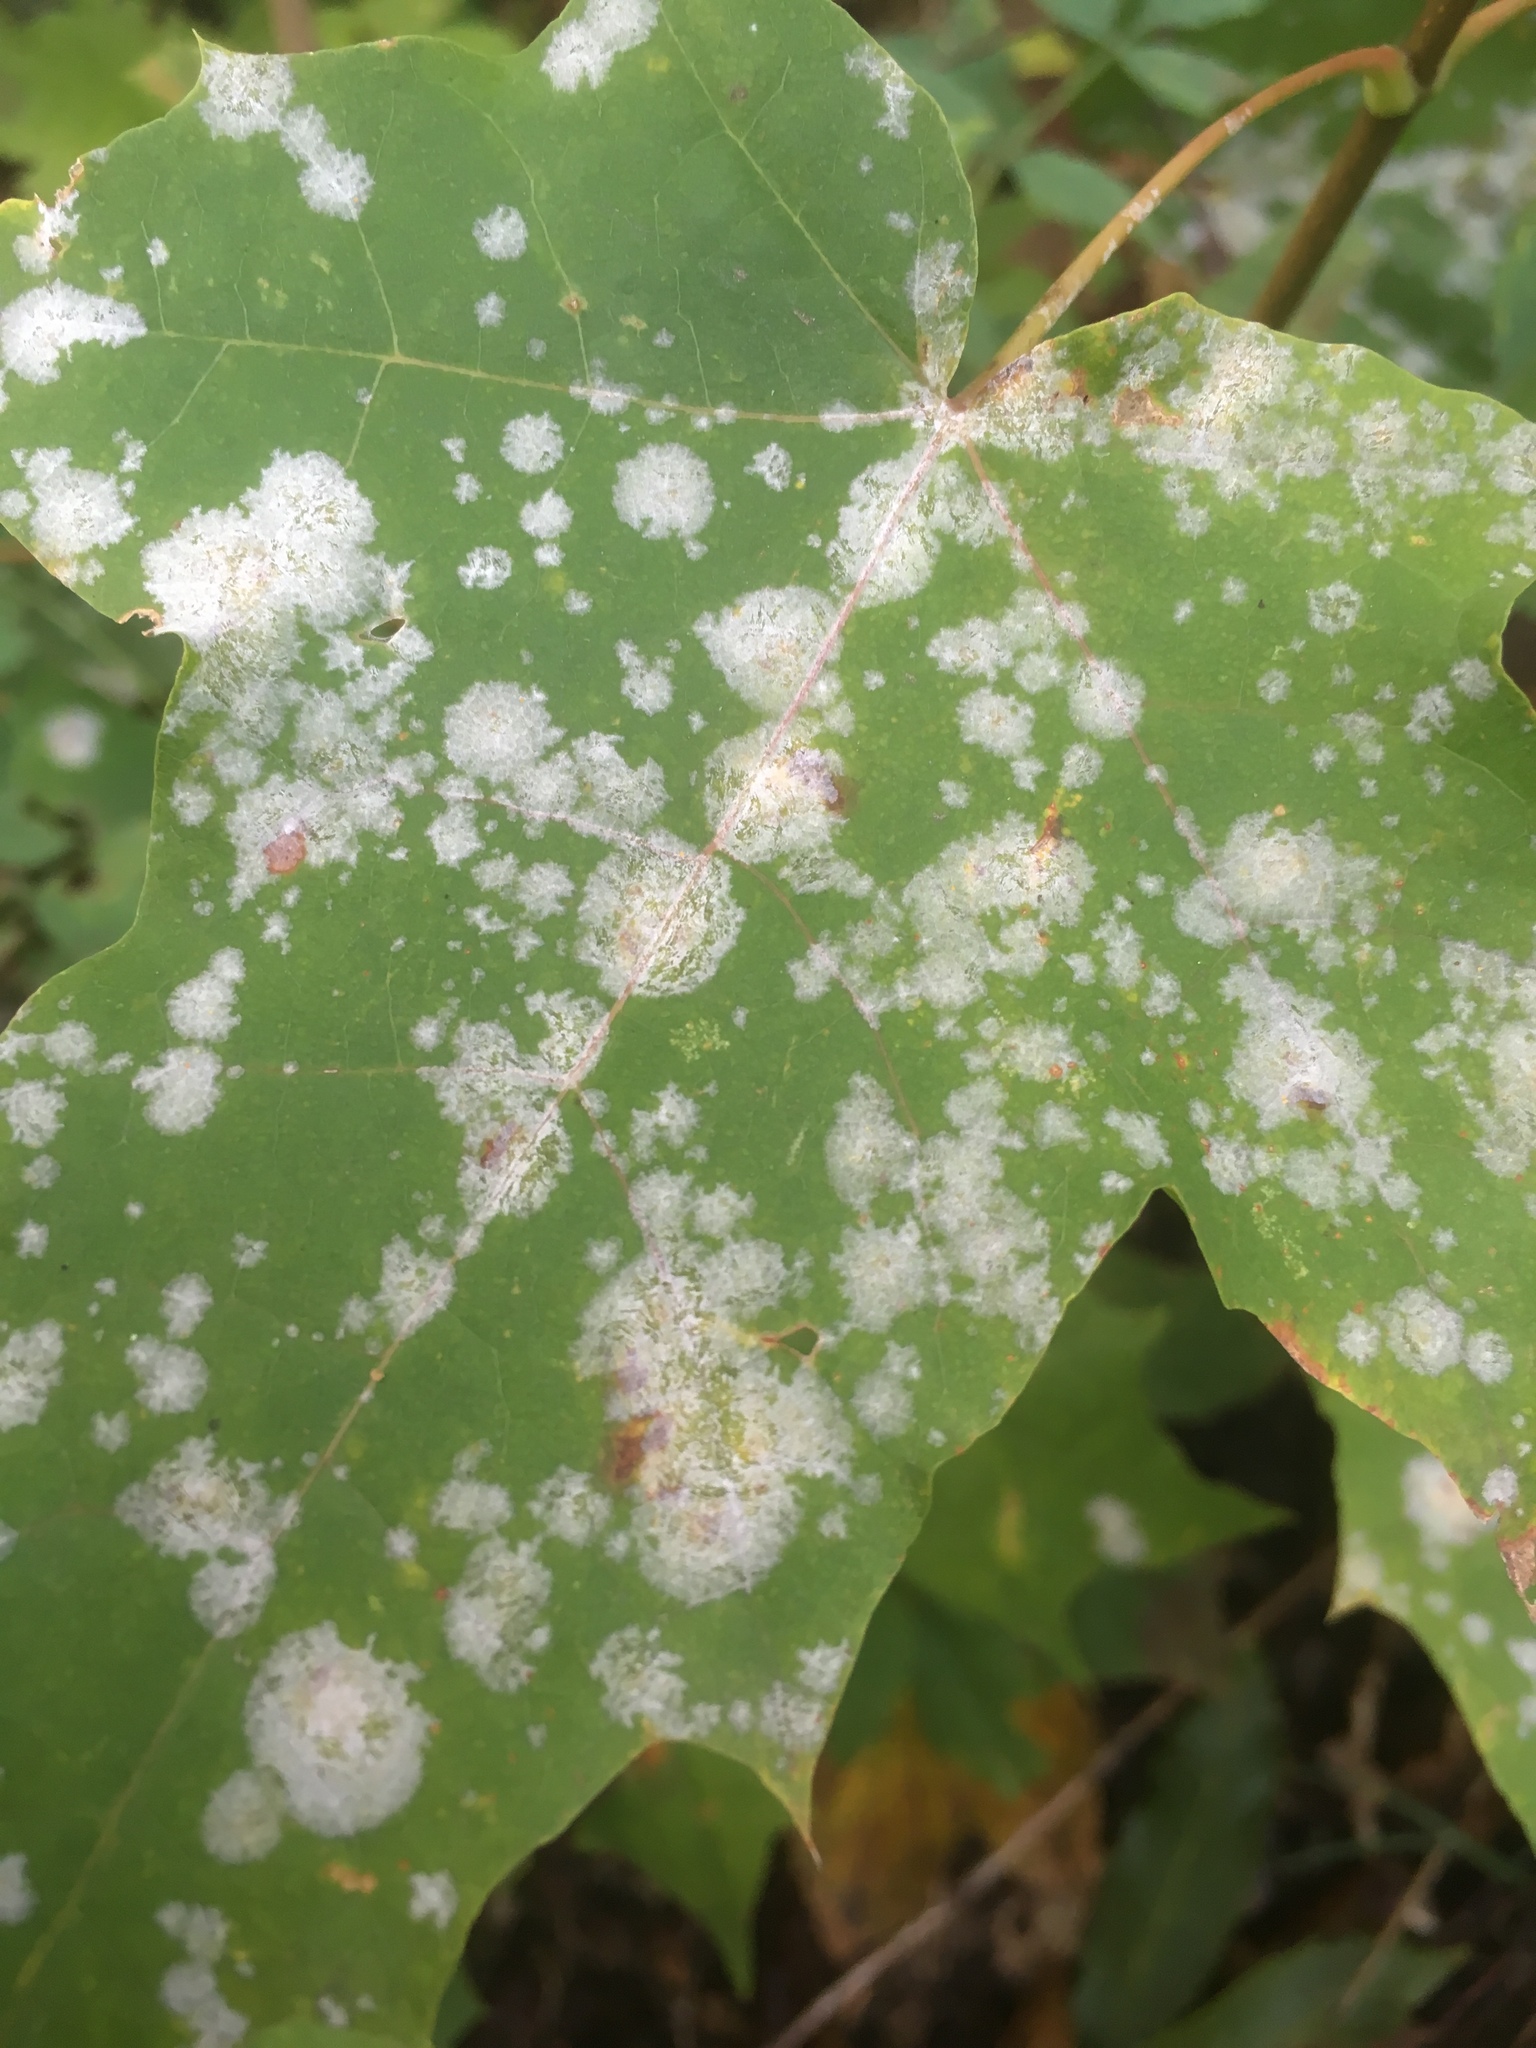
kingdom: Fungi
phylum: Ascomycota
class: Leotiomycetes
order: Helotiales
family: Erysiphaceae
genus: Sawadaea
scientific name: Sawadaea bicornis
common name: Maple mildew
